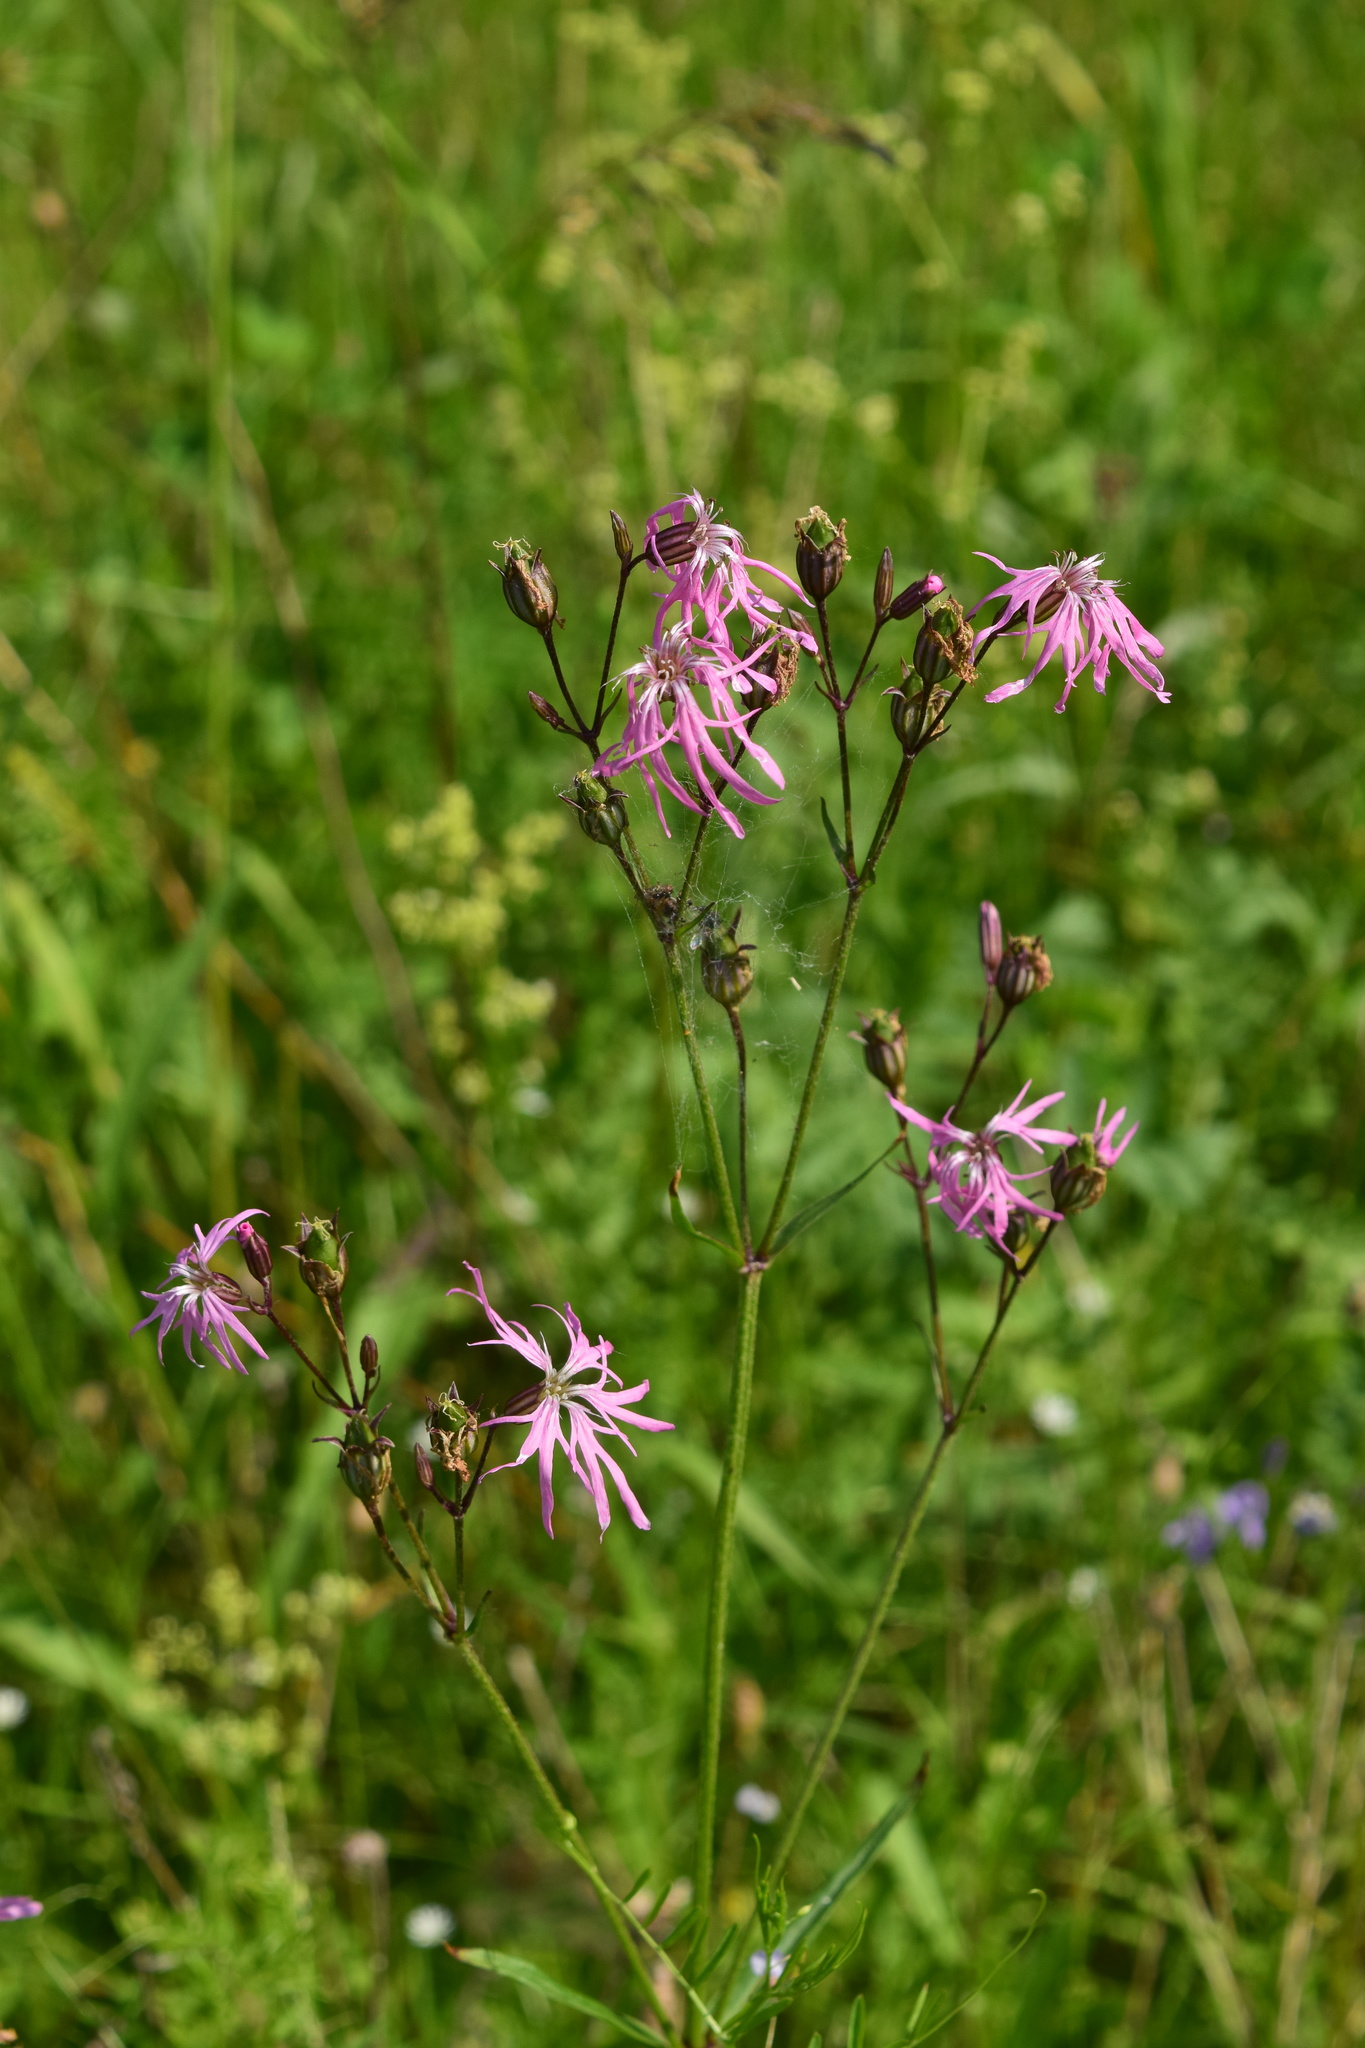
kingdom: Plantae
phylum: Tracheophyta
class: Magnoliopsida
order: Caryophyllales
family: Caryophyllaceae
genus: Silene
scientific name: Silene flos-cuculi
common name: Ragged-robin
